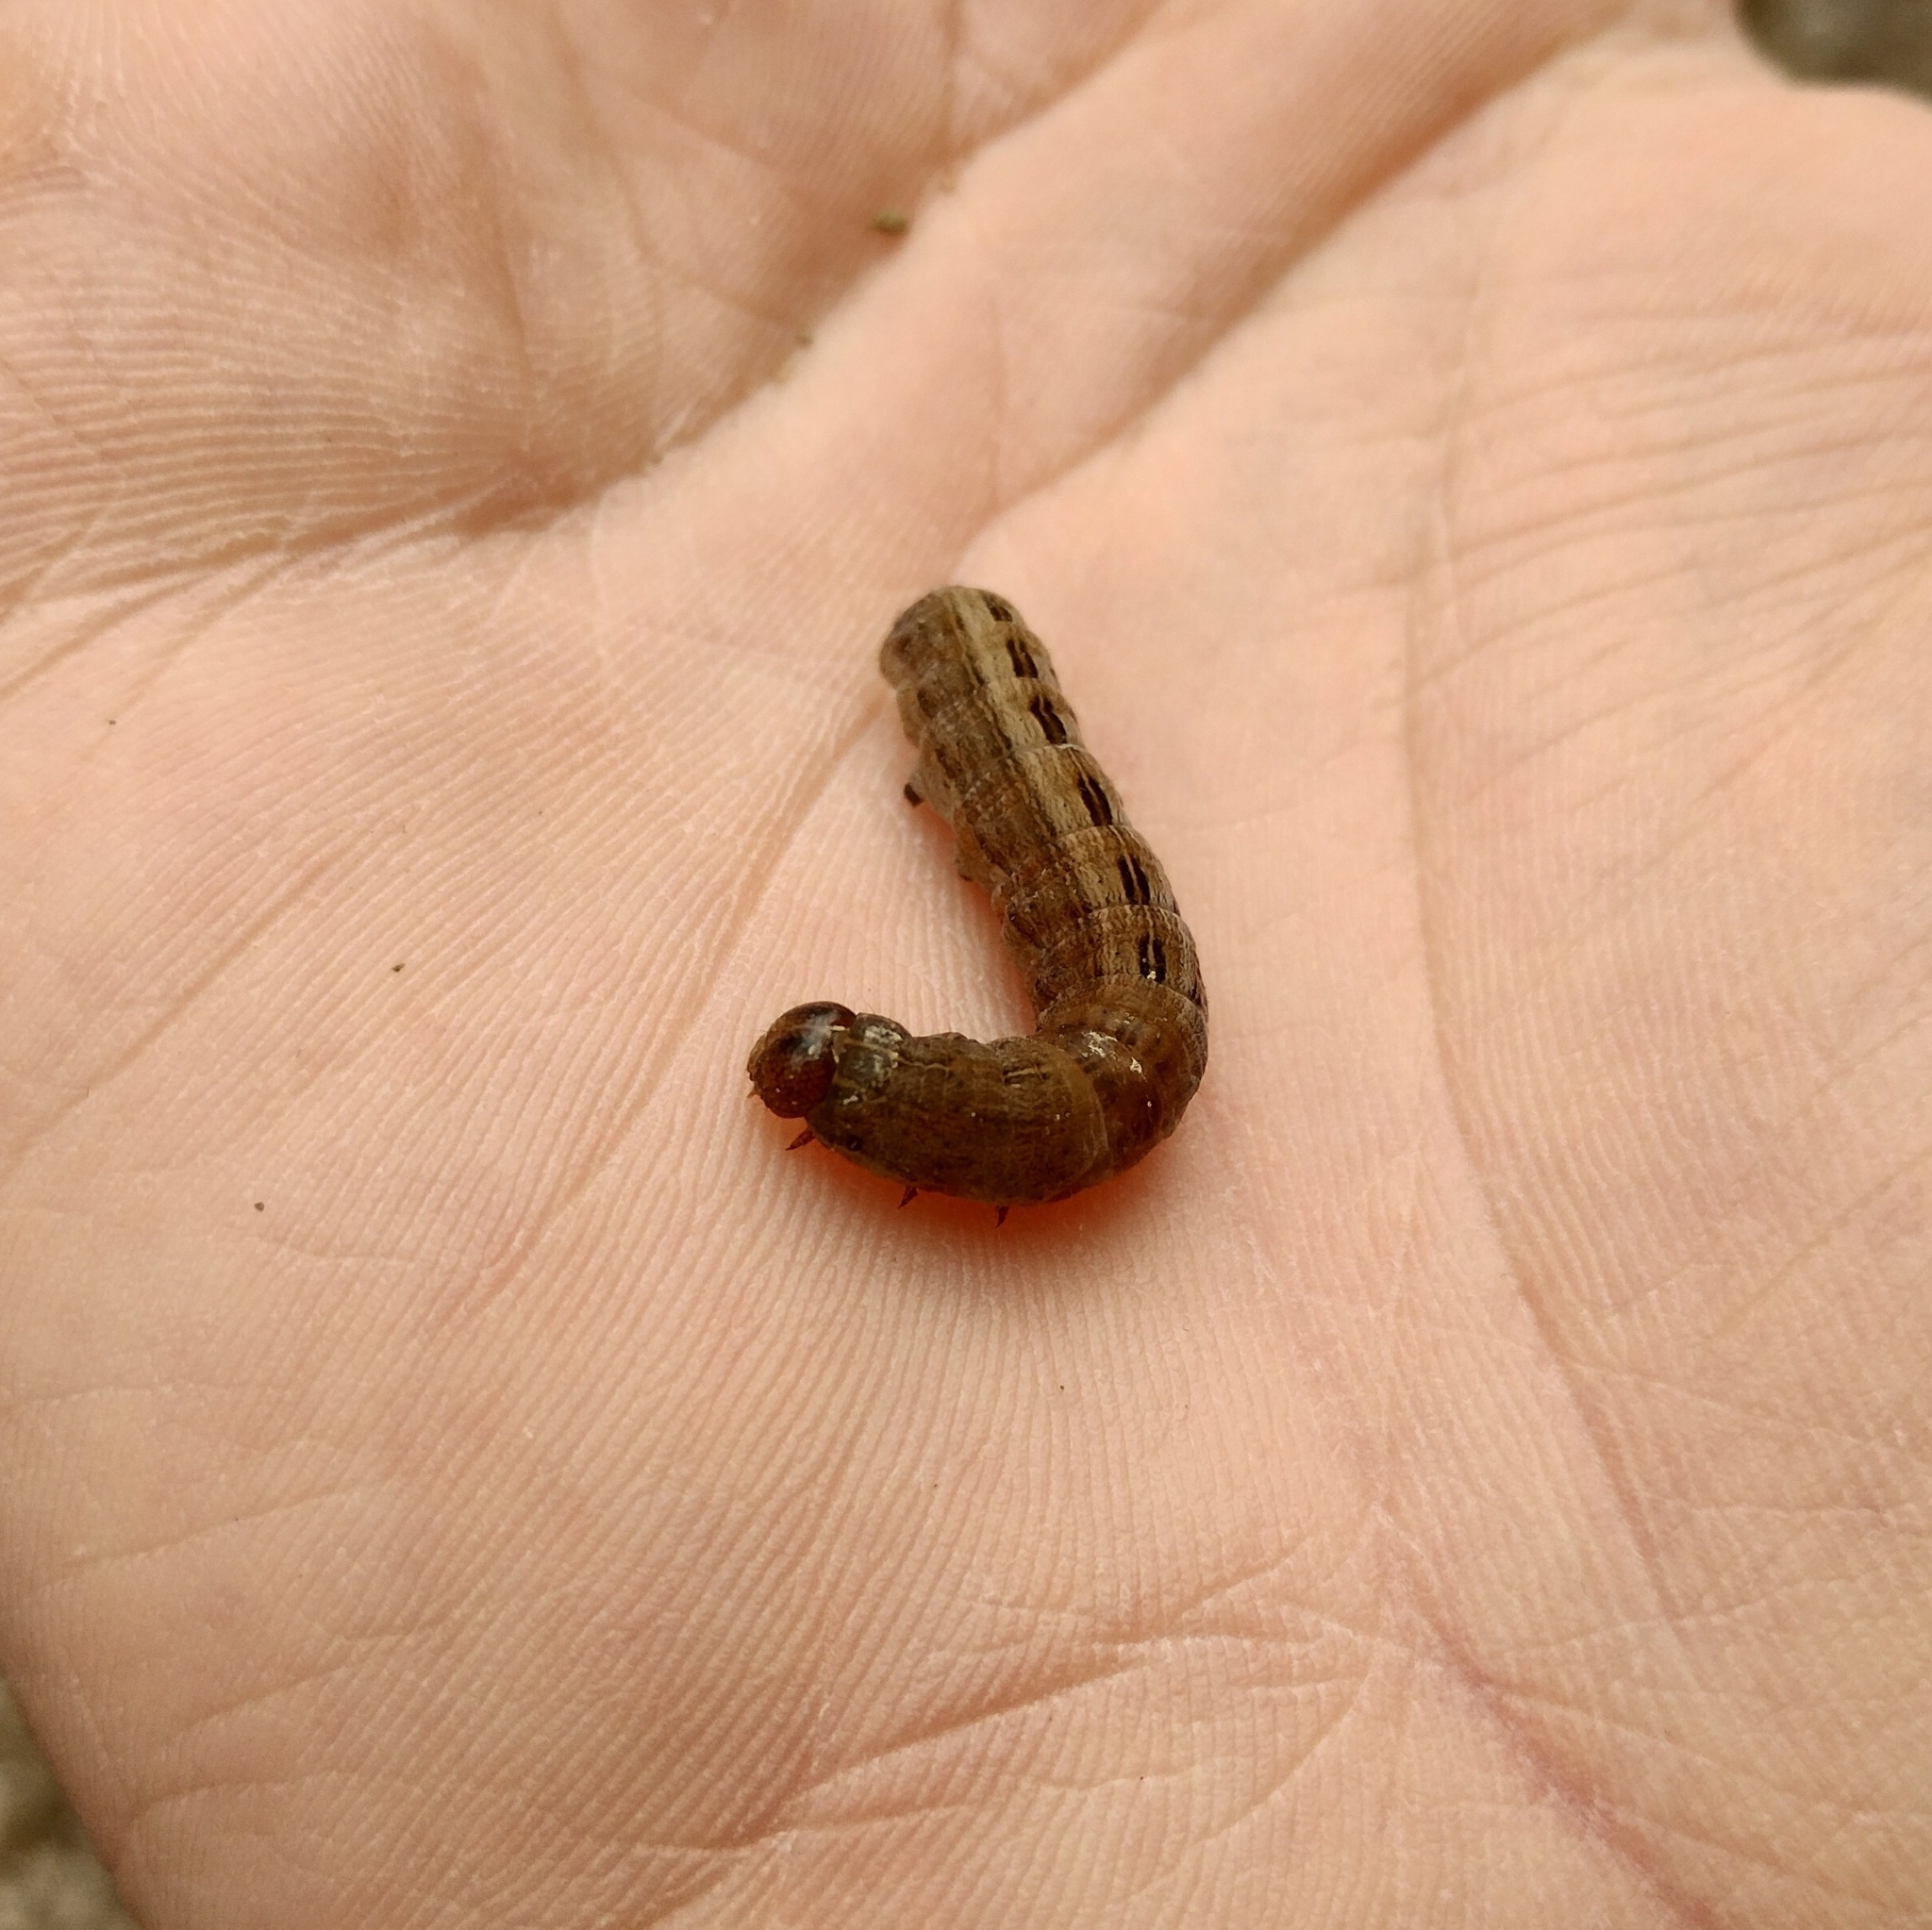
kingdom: Animalia
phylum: Arthropoda
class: Insecta
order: Lepidoptera
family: Noctuidae
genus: Thalpophila
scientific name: Thalpophila matura
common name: Straw underwing
